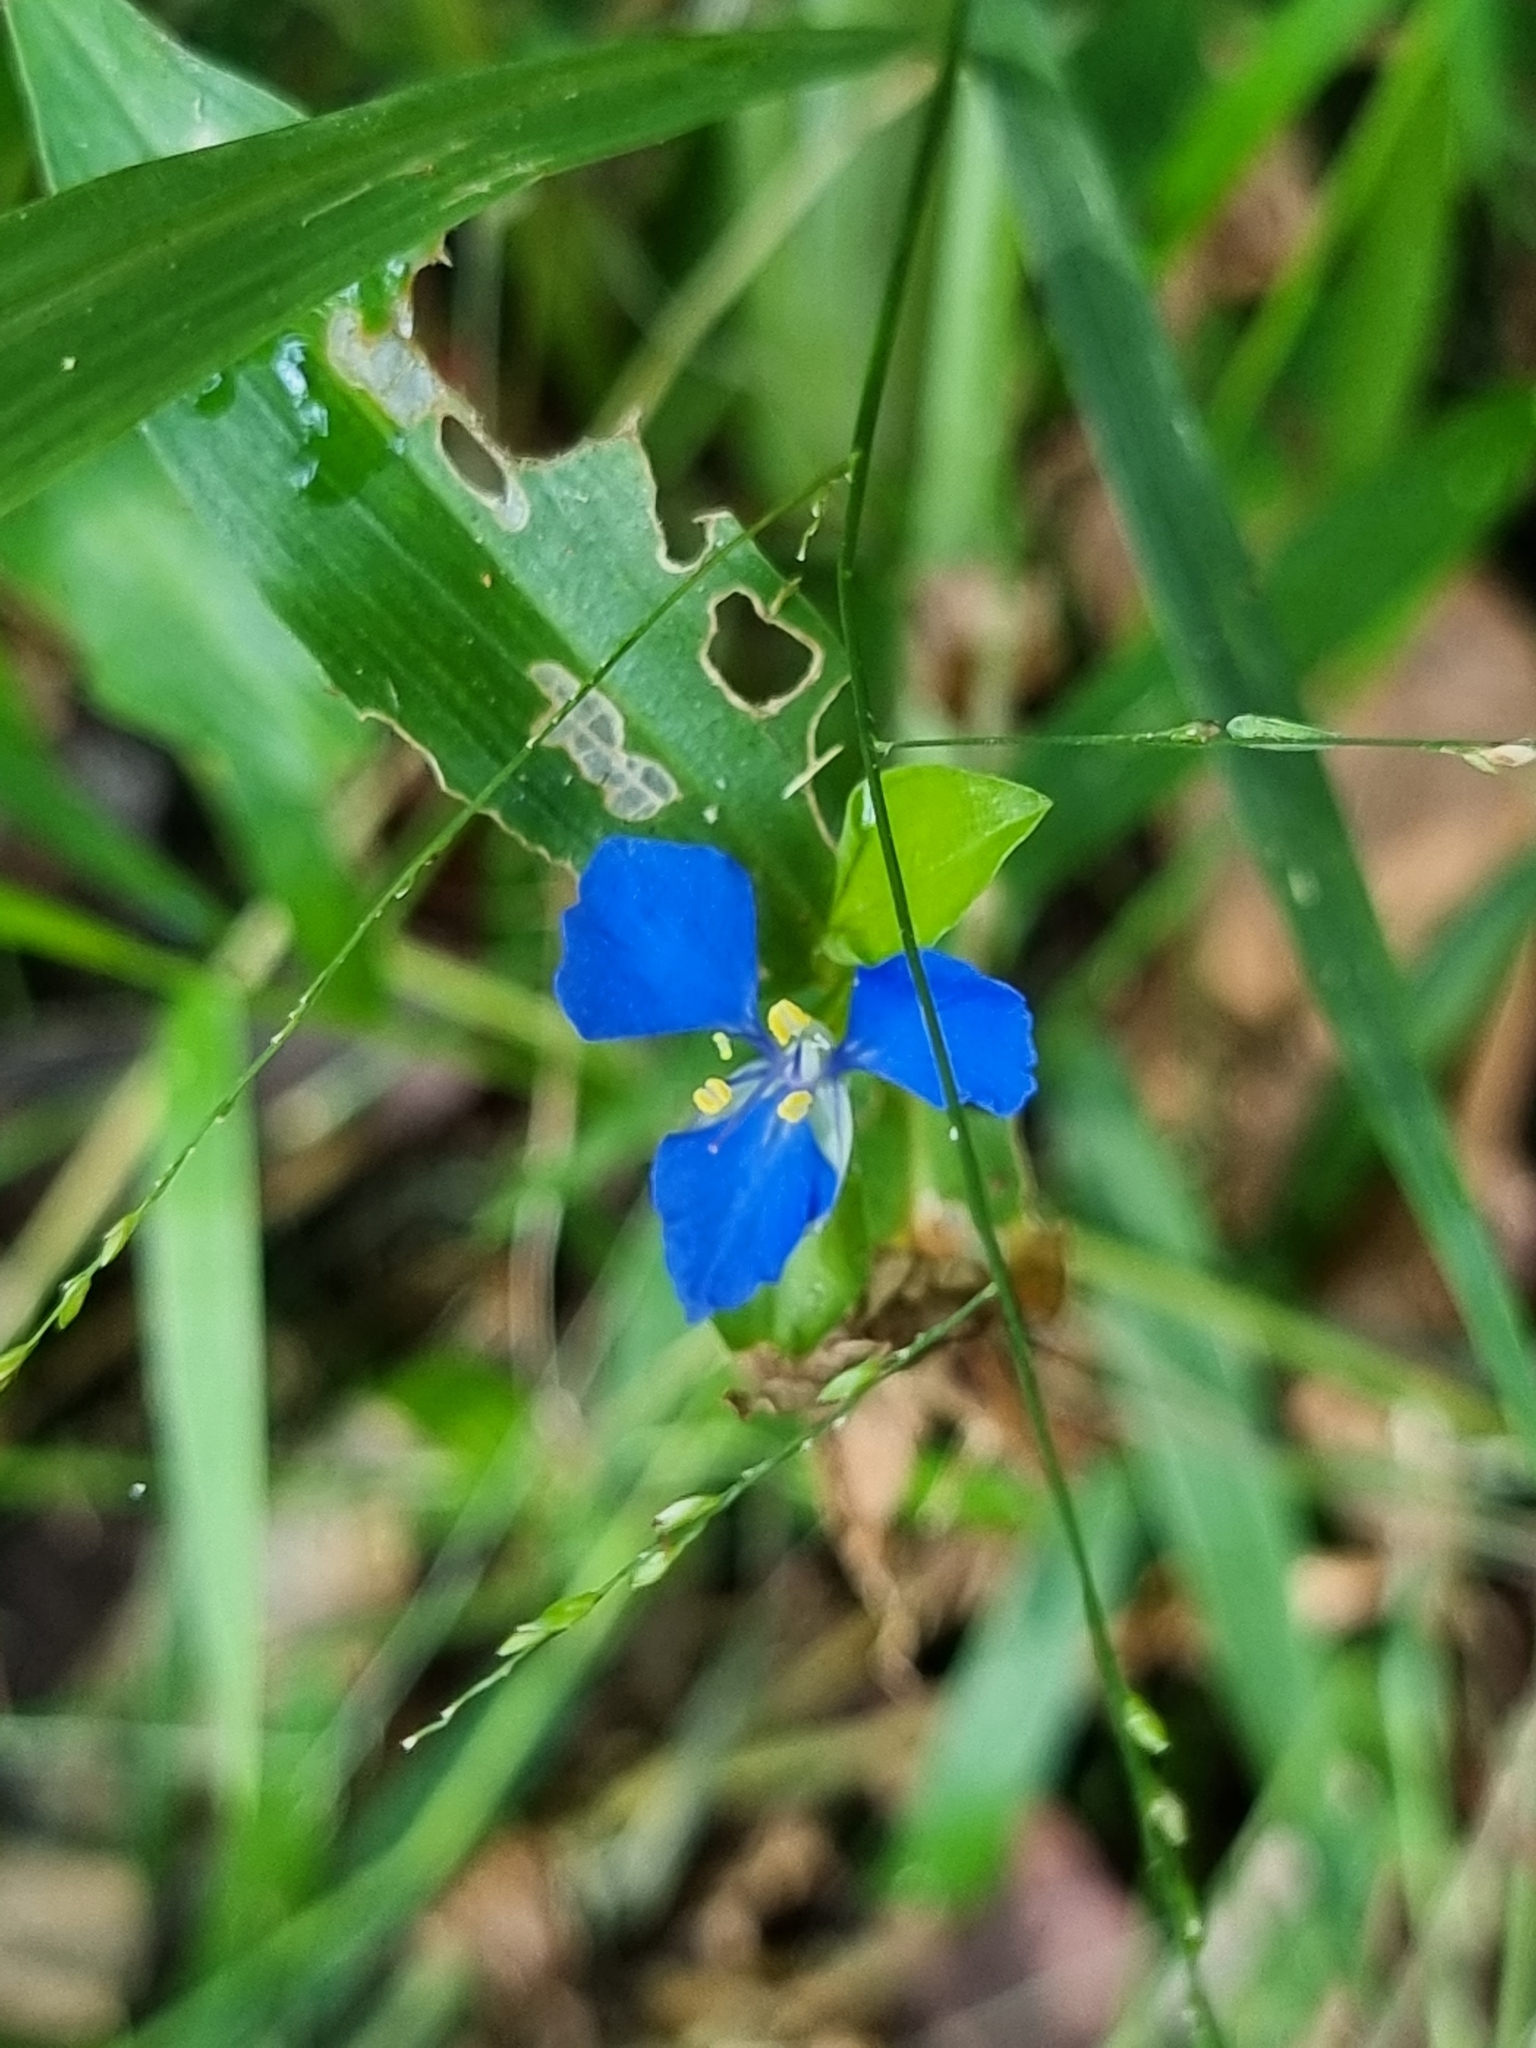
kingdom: Plantae
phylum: Tracheophyta
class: Liliopsida
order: Commelinales
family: Commelinaceae
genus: Commelina
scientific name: Commelina cyanea
